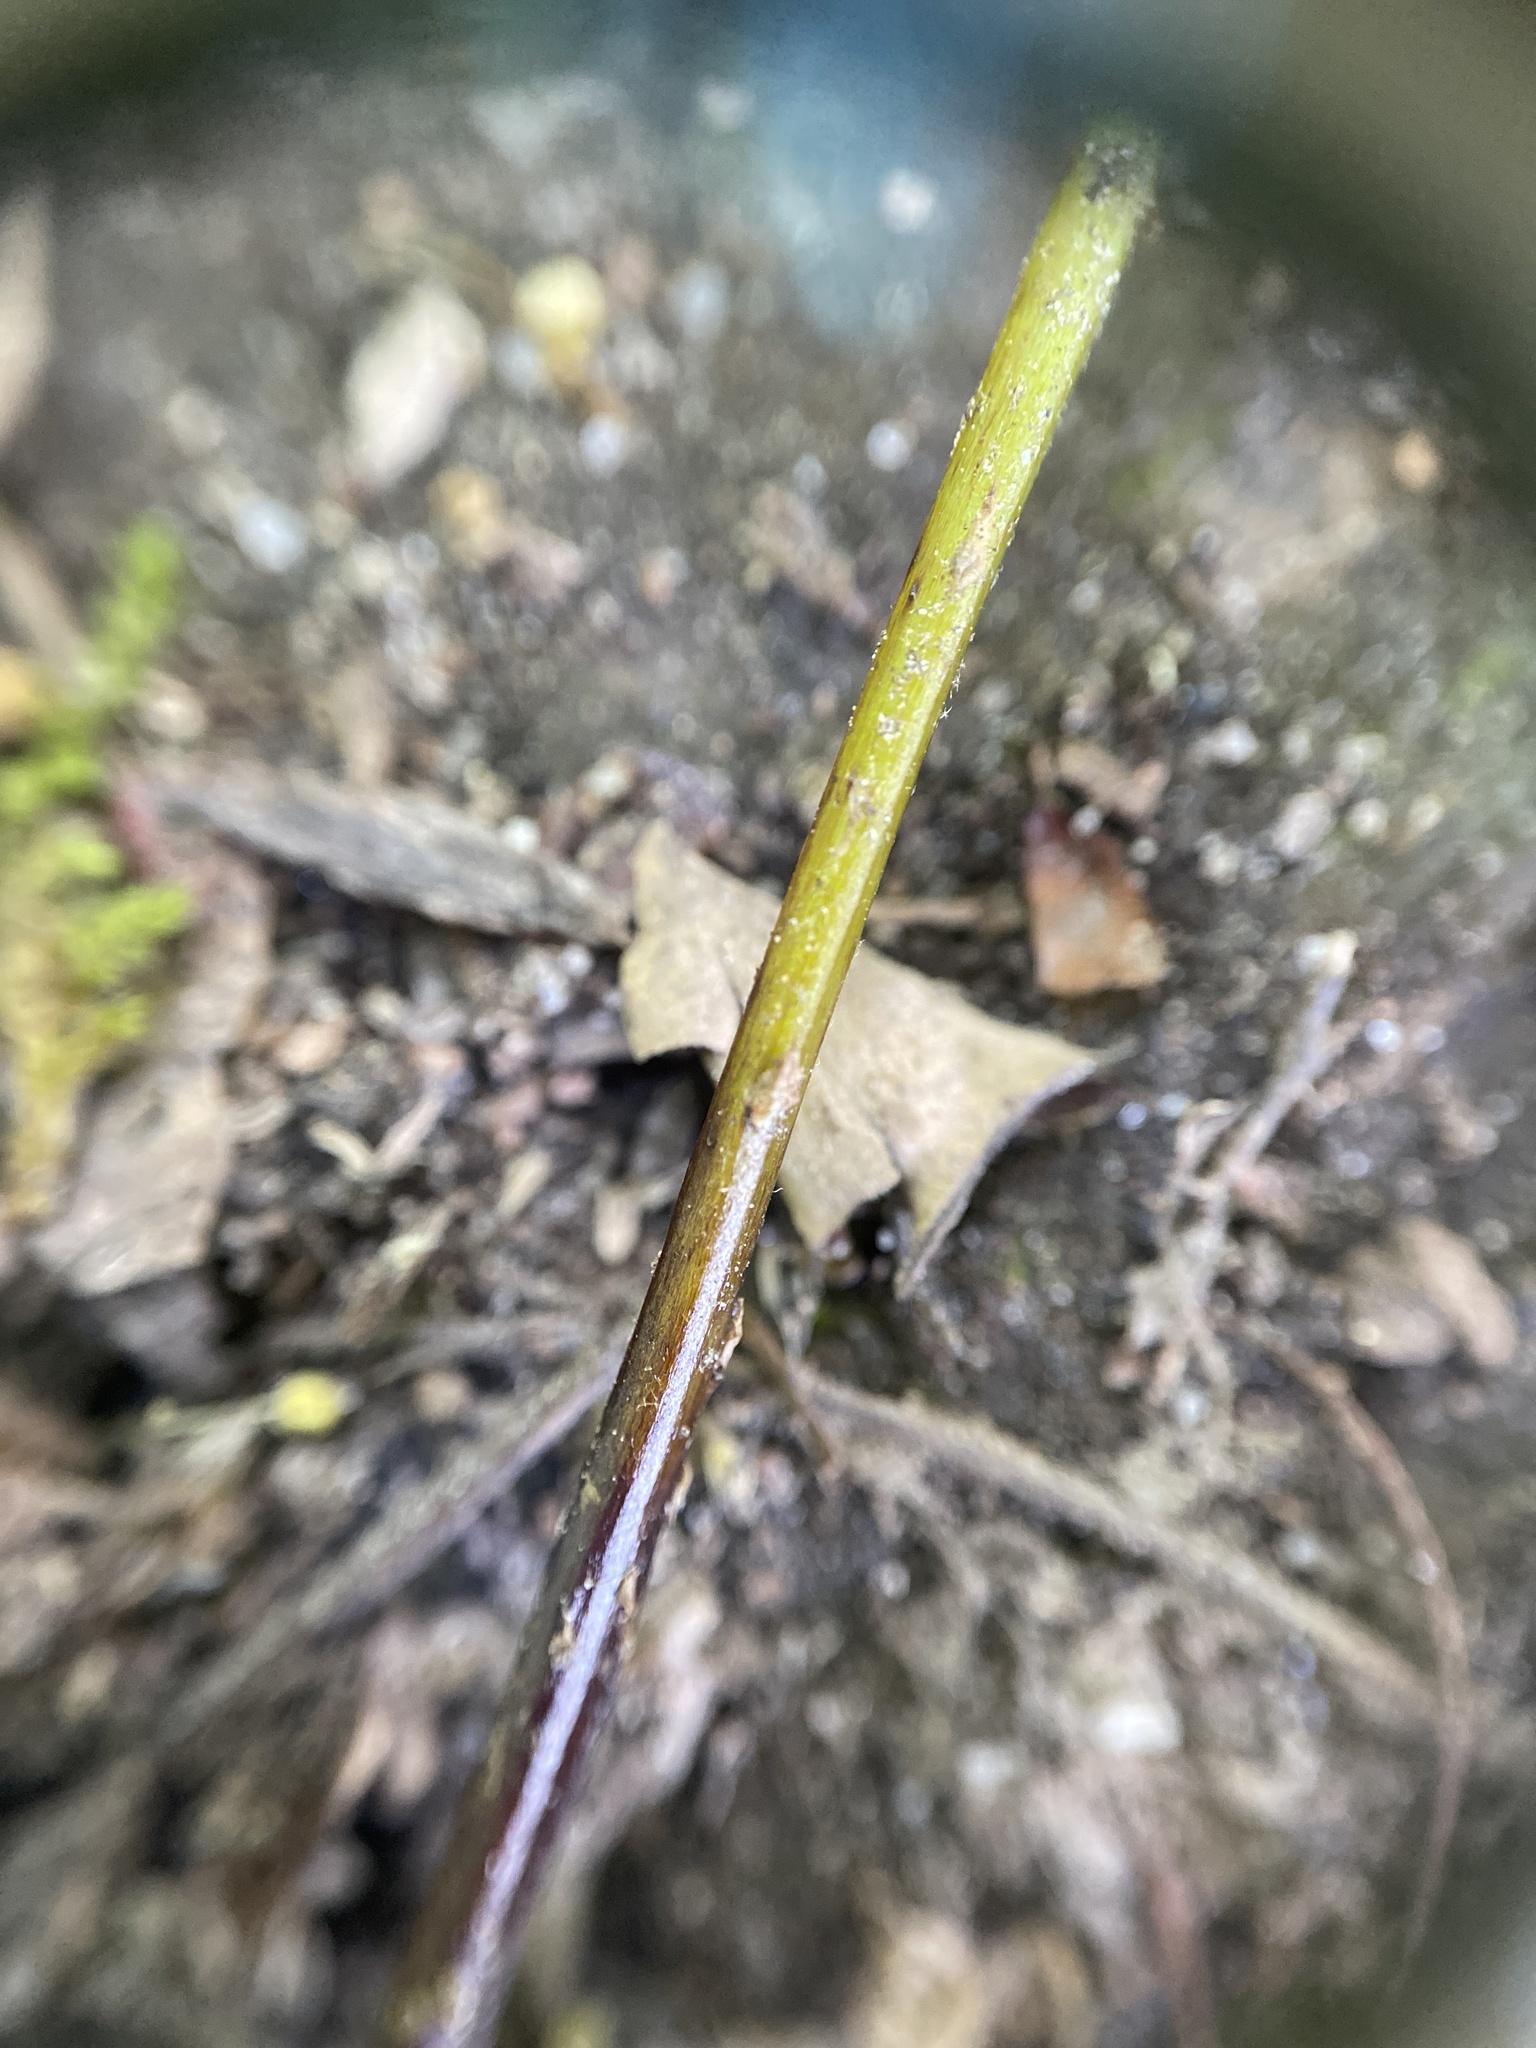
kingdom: Plantae
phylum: Tracheophyta
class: Polypodiopsida
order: Polypodiales
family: Thelypteridaceae
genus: Amauropelta
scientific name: Amauropelta noveboracensis
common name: New york fern
